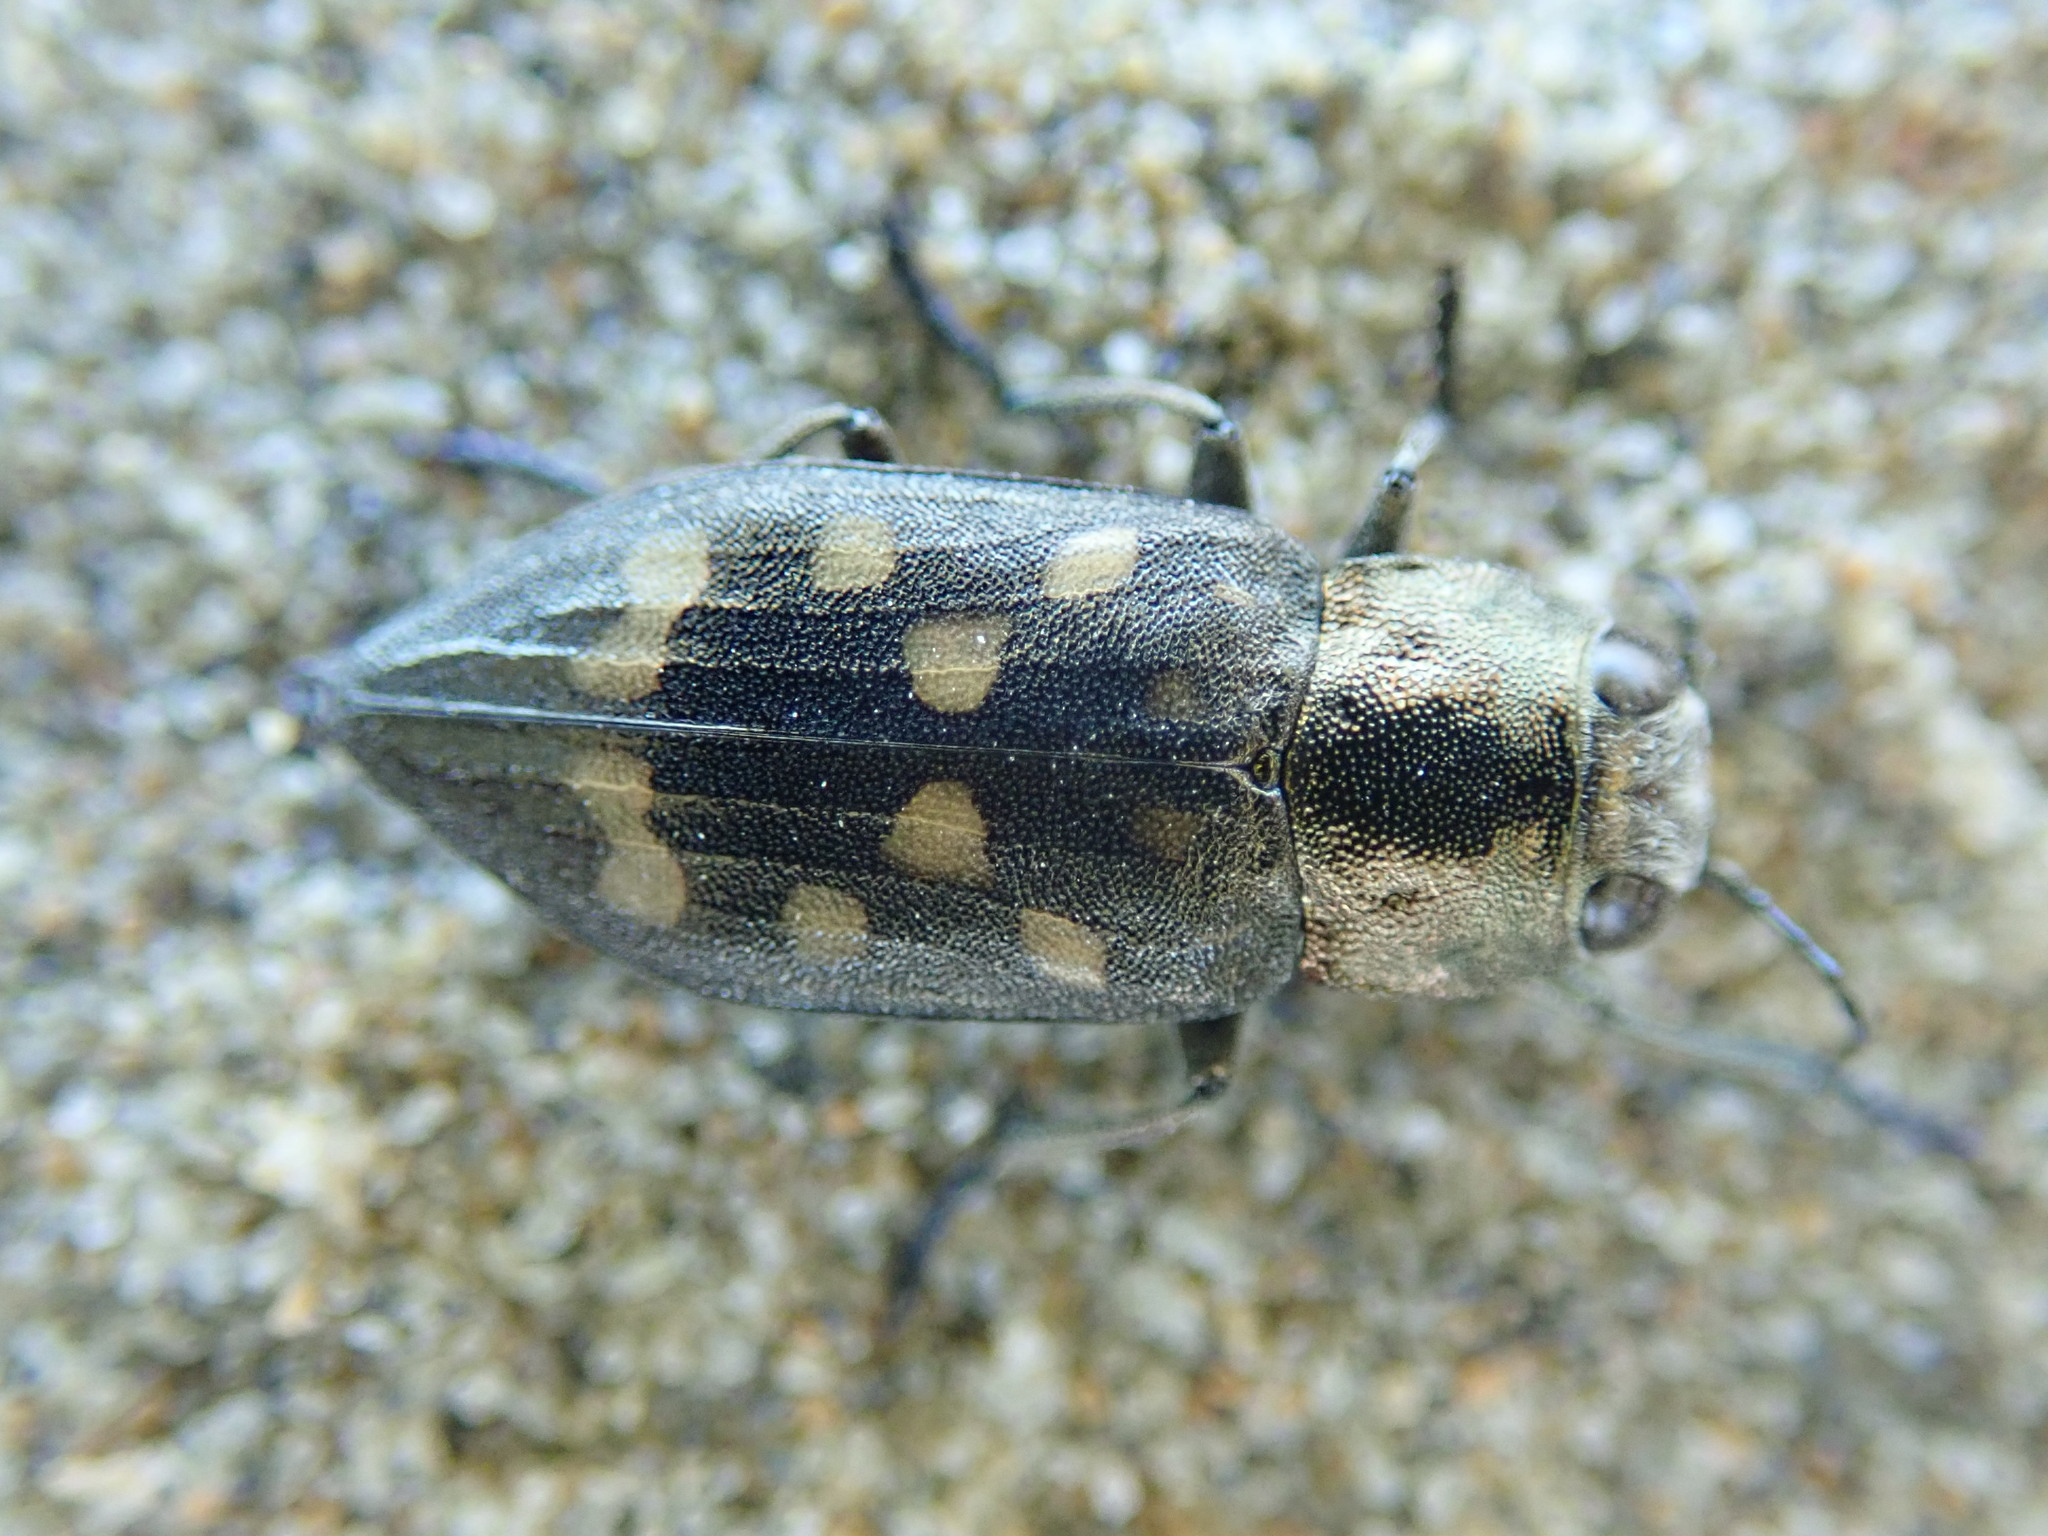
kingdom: Animalia
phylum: Arthropoda
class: Insecta
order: Coleoptera
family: Buprestidae
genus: Trachypteris
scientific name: Trachypteris picta
